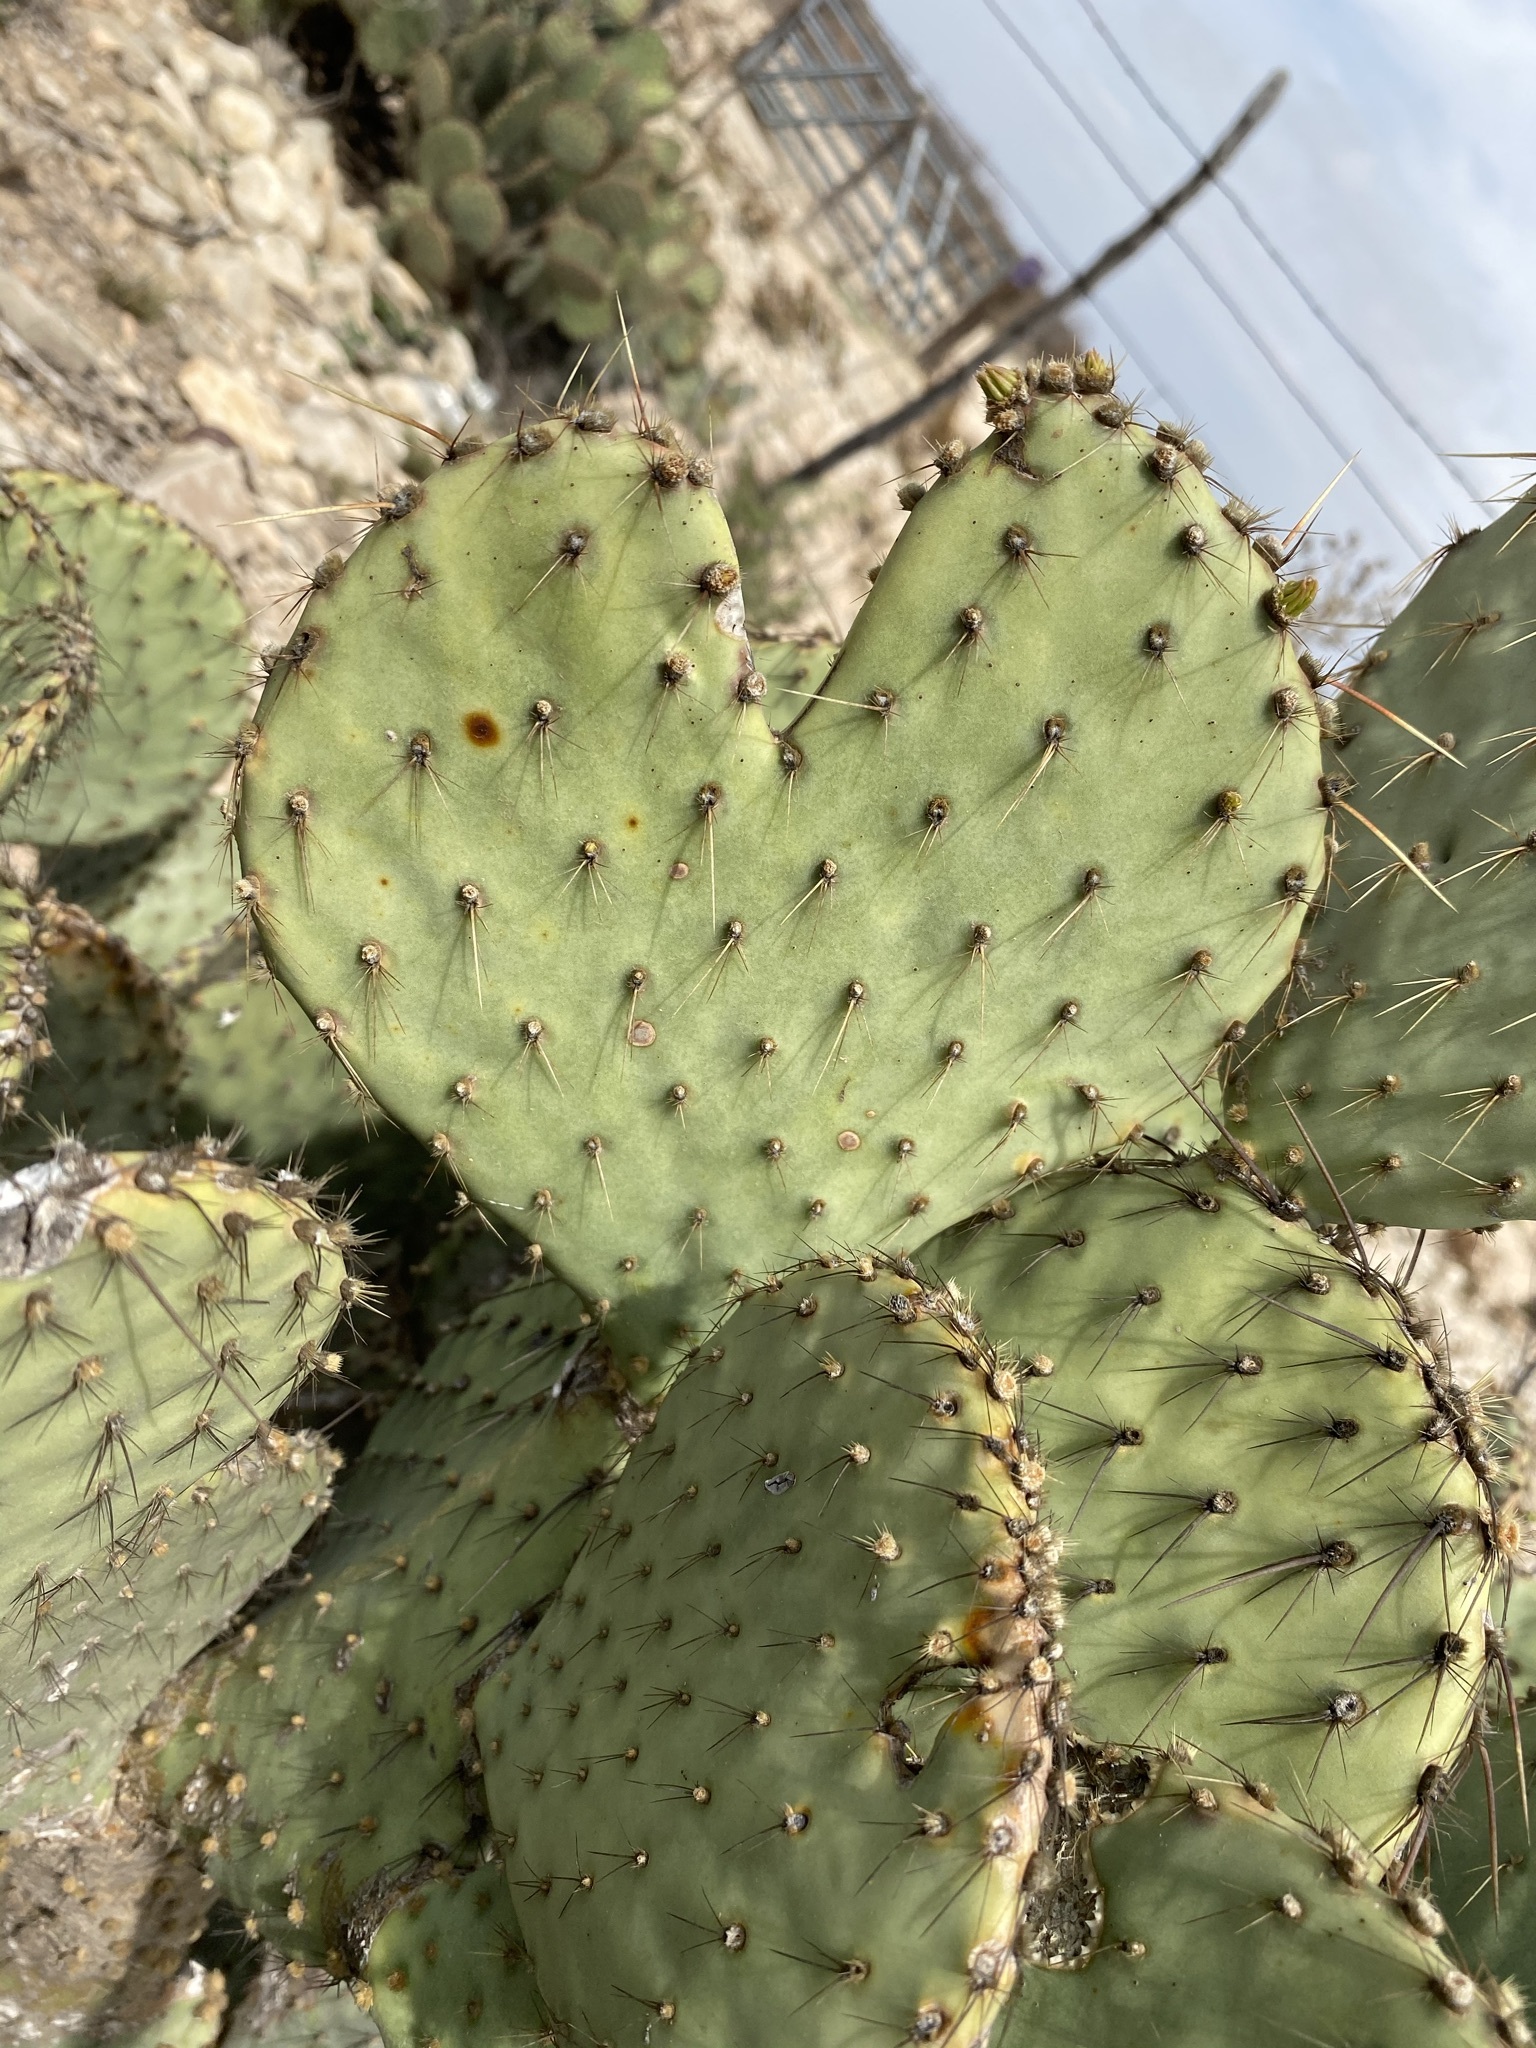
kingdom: Plantae
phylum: Tracheophyta
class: Magnoliopsida
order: Caryophyllales
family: Cactaceae
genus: Opuntia
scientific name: Opuntia strigil
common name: Marble-fruit prickly-pear
